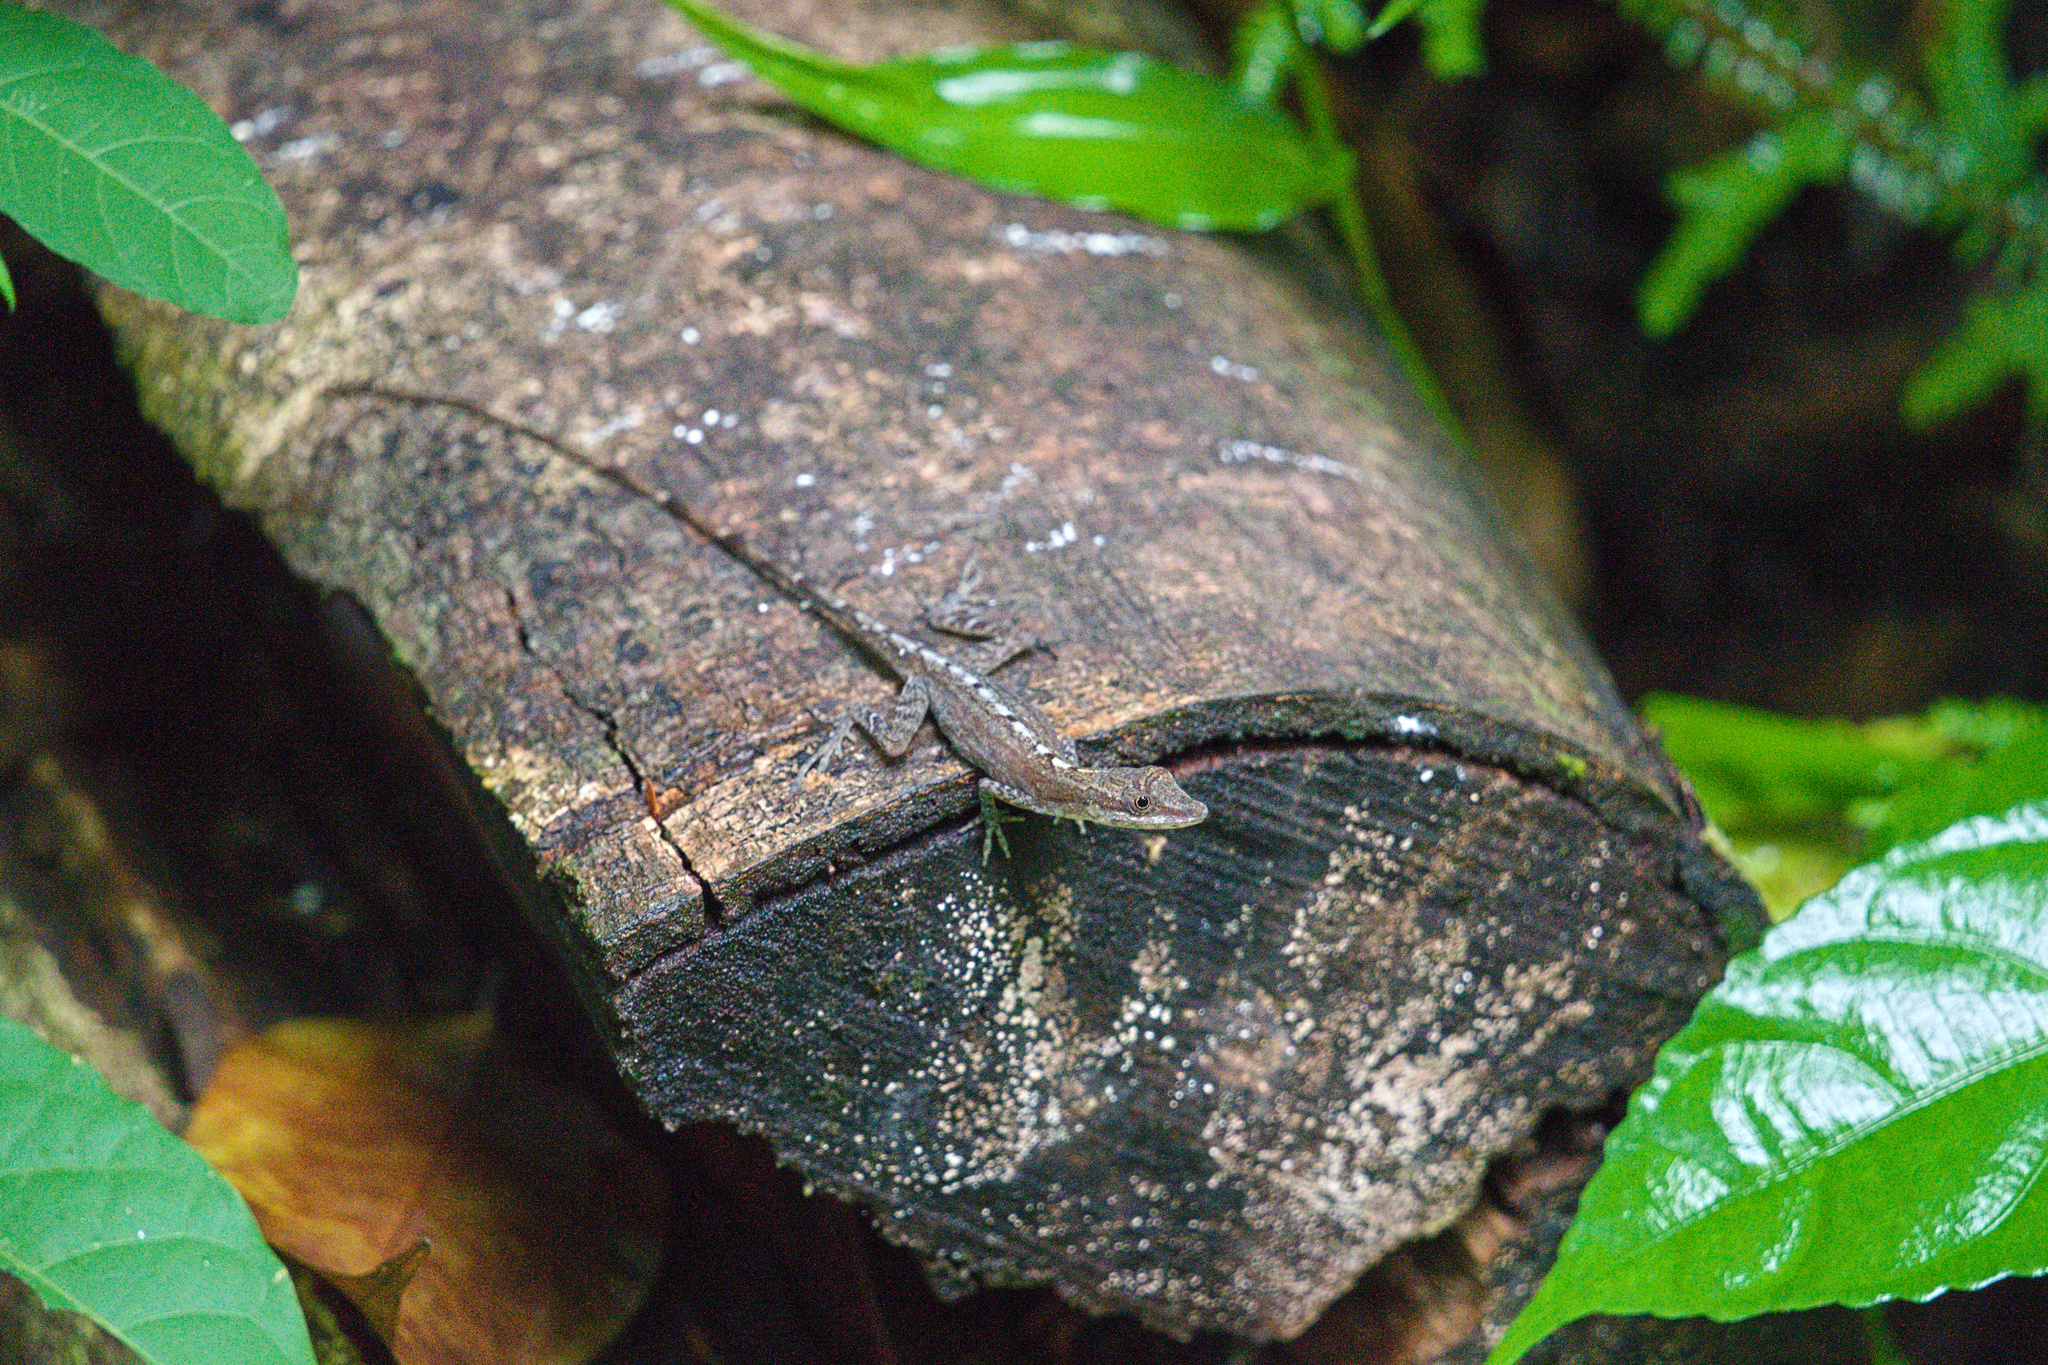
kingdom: Animalia
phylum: Chordata
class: Squamata
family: Dactyloidae
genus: Anolis
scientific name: Anolis limifrons
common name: Border anole
